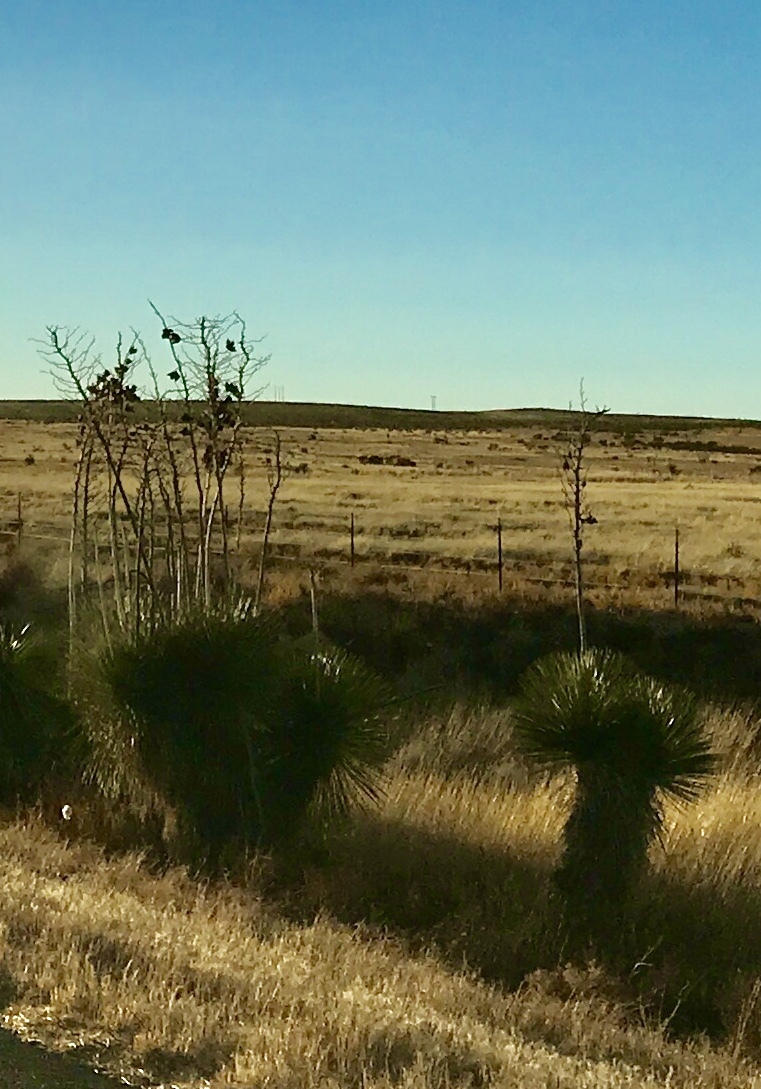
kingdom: Plantae
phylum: Tracheophyta
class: Liliopsida
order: Asparagales
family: Asparagaceae
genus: Yucca
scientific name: Yucca elata
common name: Palmella
